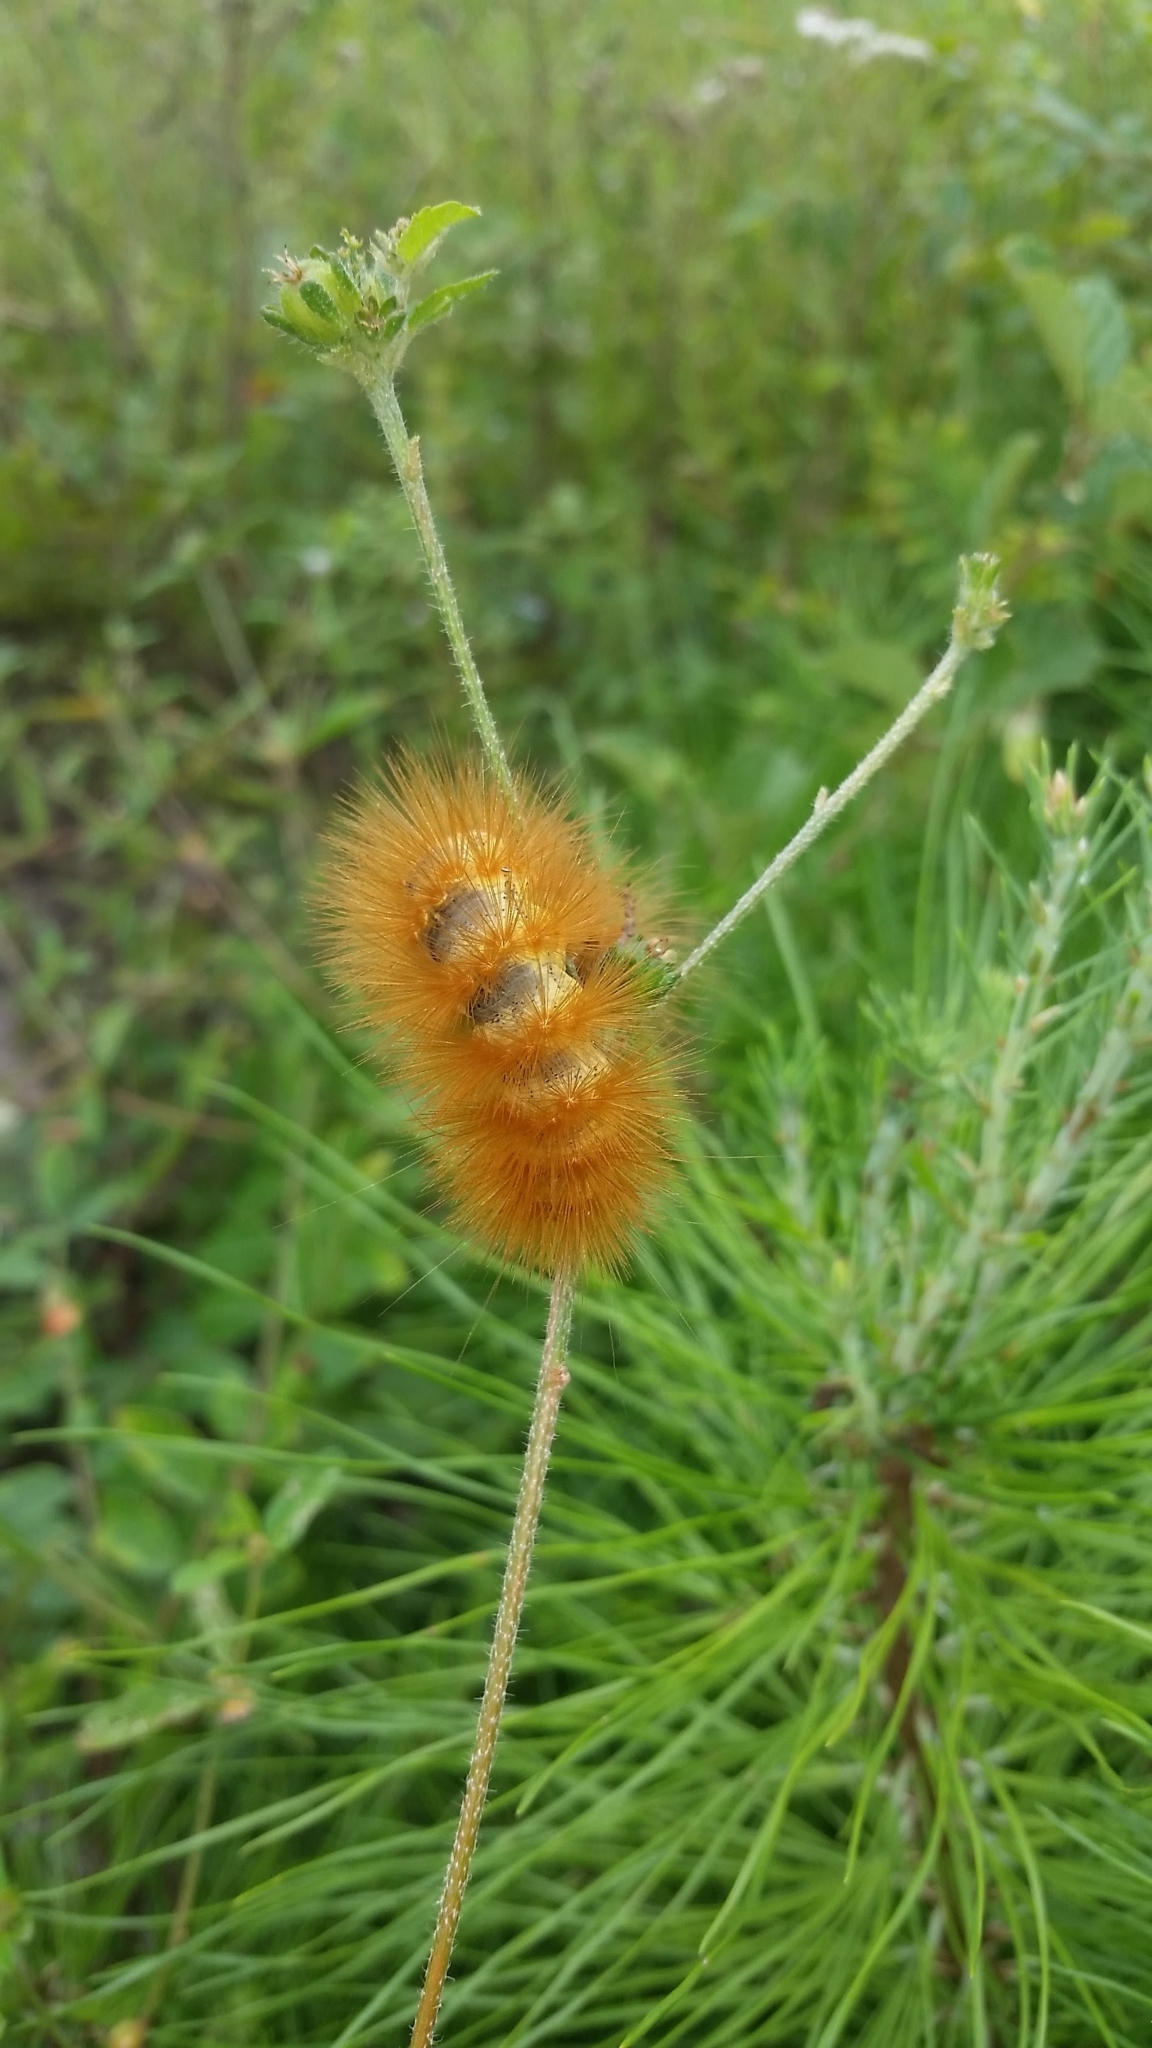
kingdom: Animalia
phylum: Arthropoda
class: Insecta
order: Lepidoptera
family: Erebidae
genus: Estigmene
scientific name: Estigmene acrea
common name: Salt marsh moth
